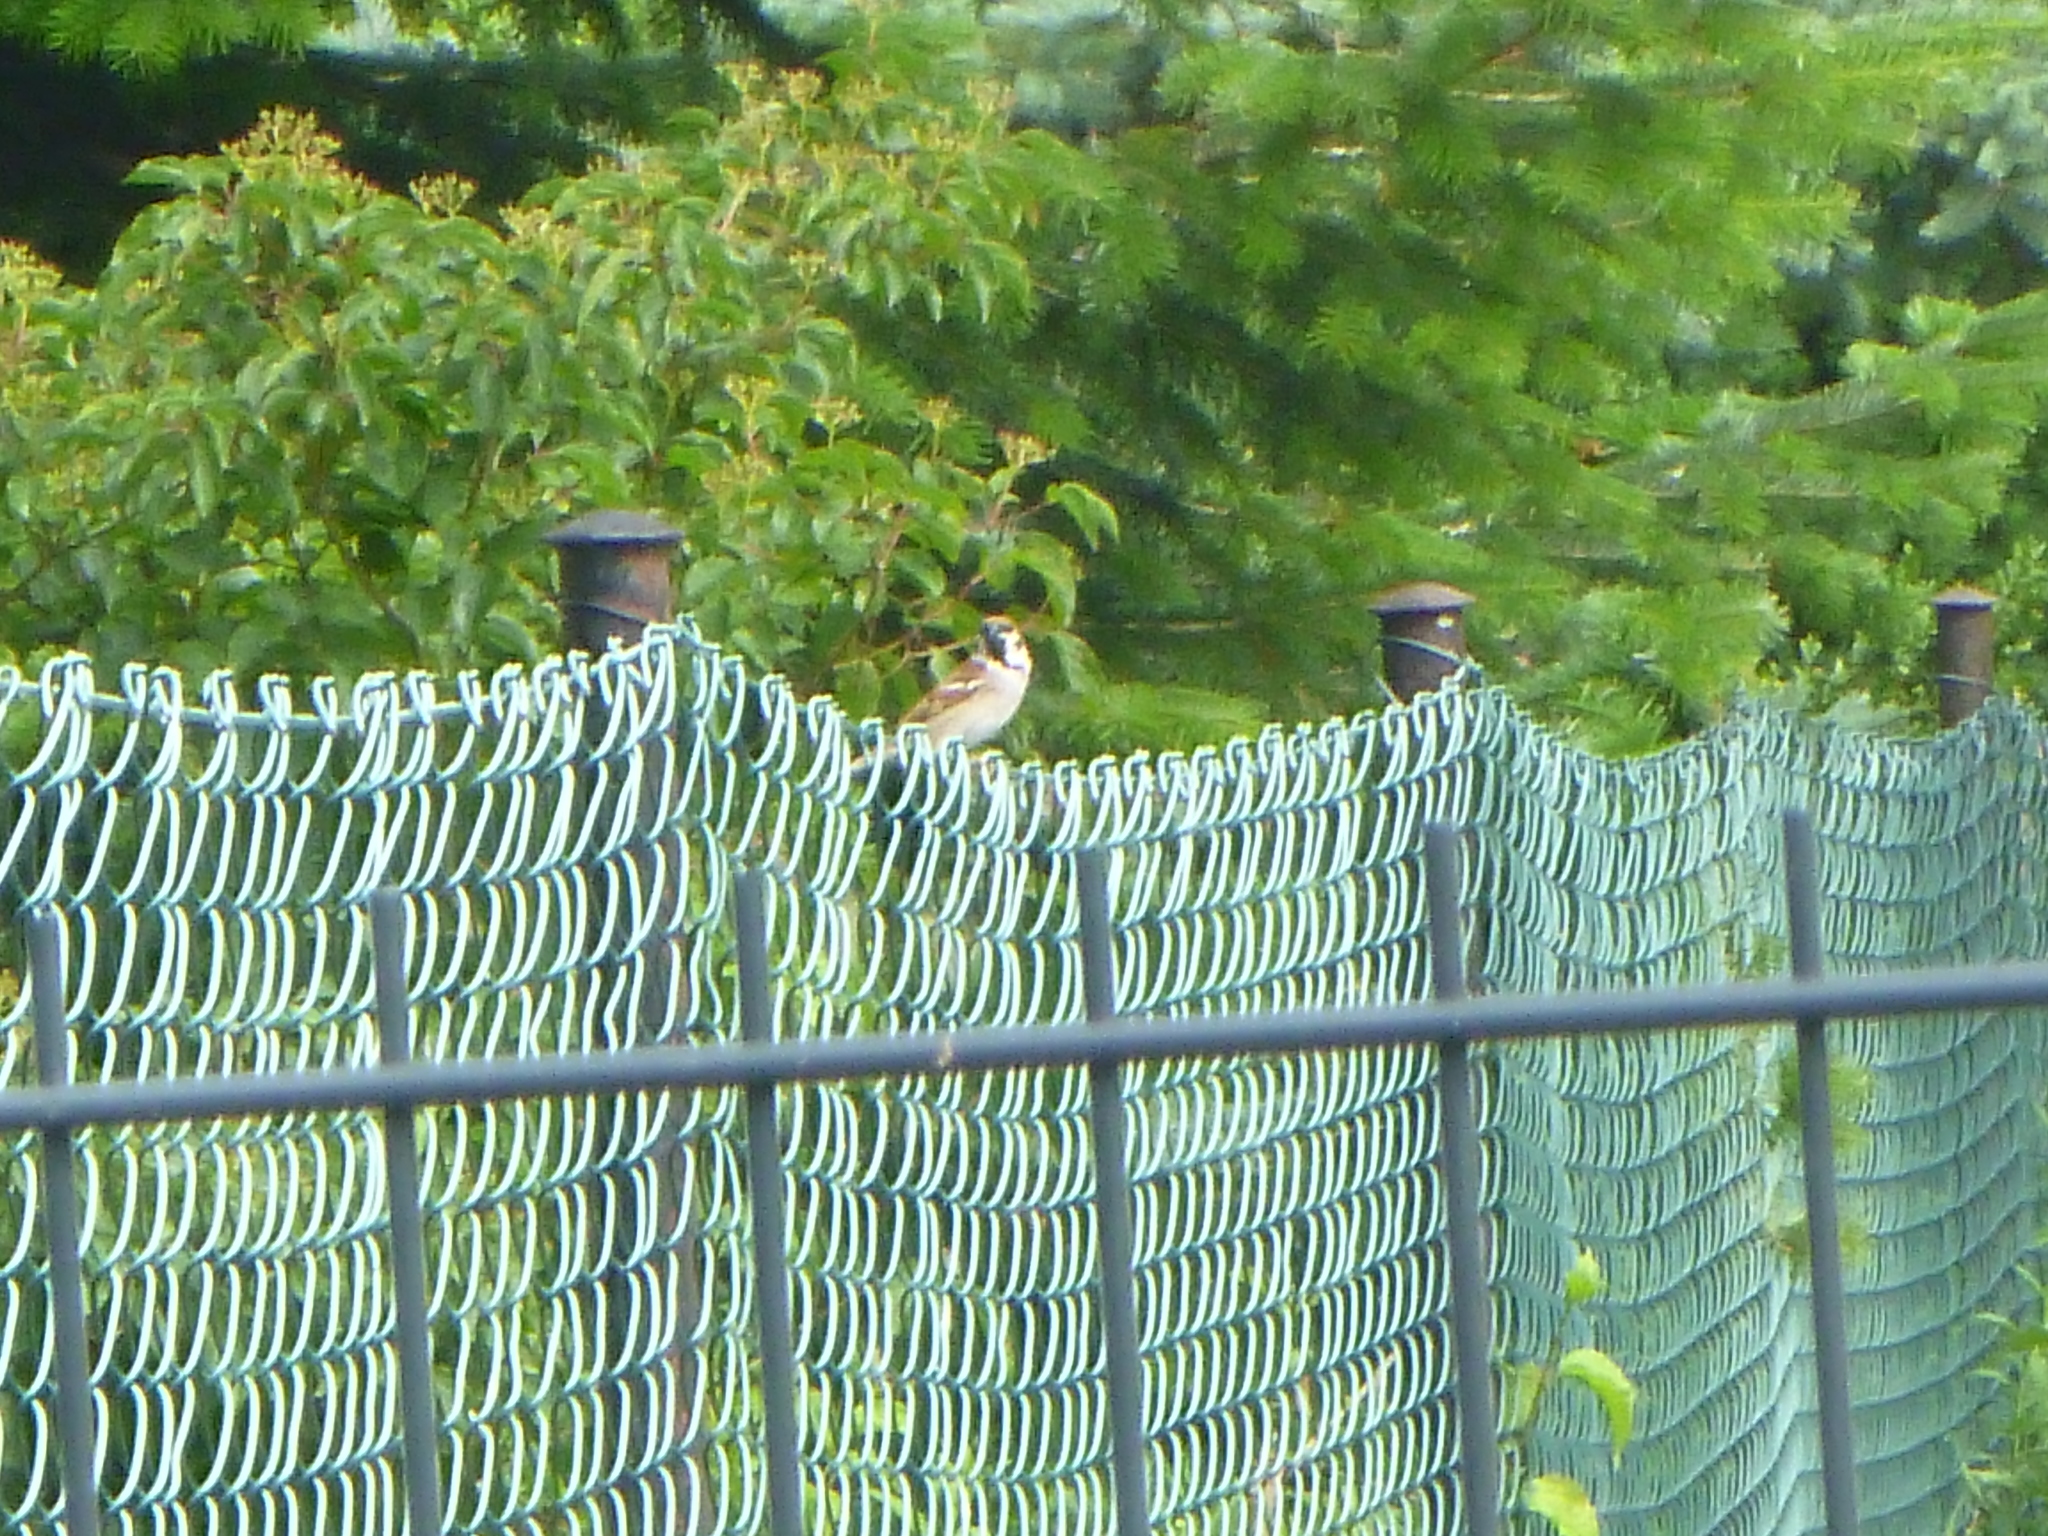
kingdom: Animalia
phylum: Chordata
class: Aves
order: Passeriformes
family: Passeridae
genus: Passer
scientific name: Passer montanus
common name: Eurasian tree sparrow
